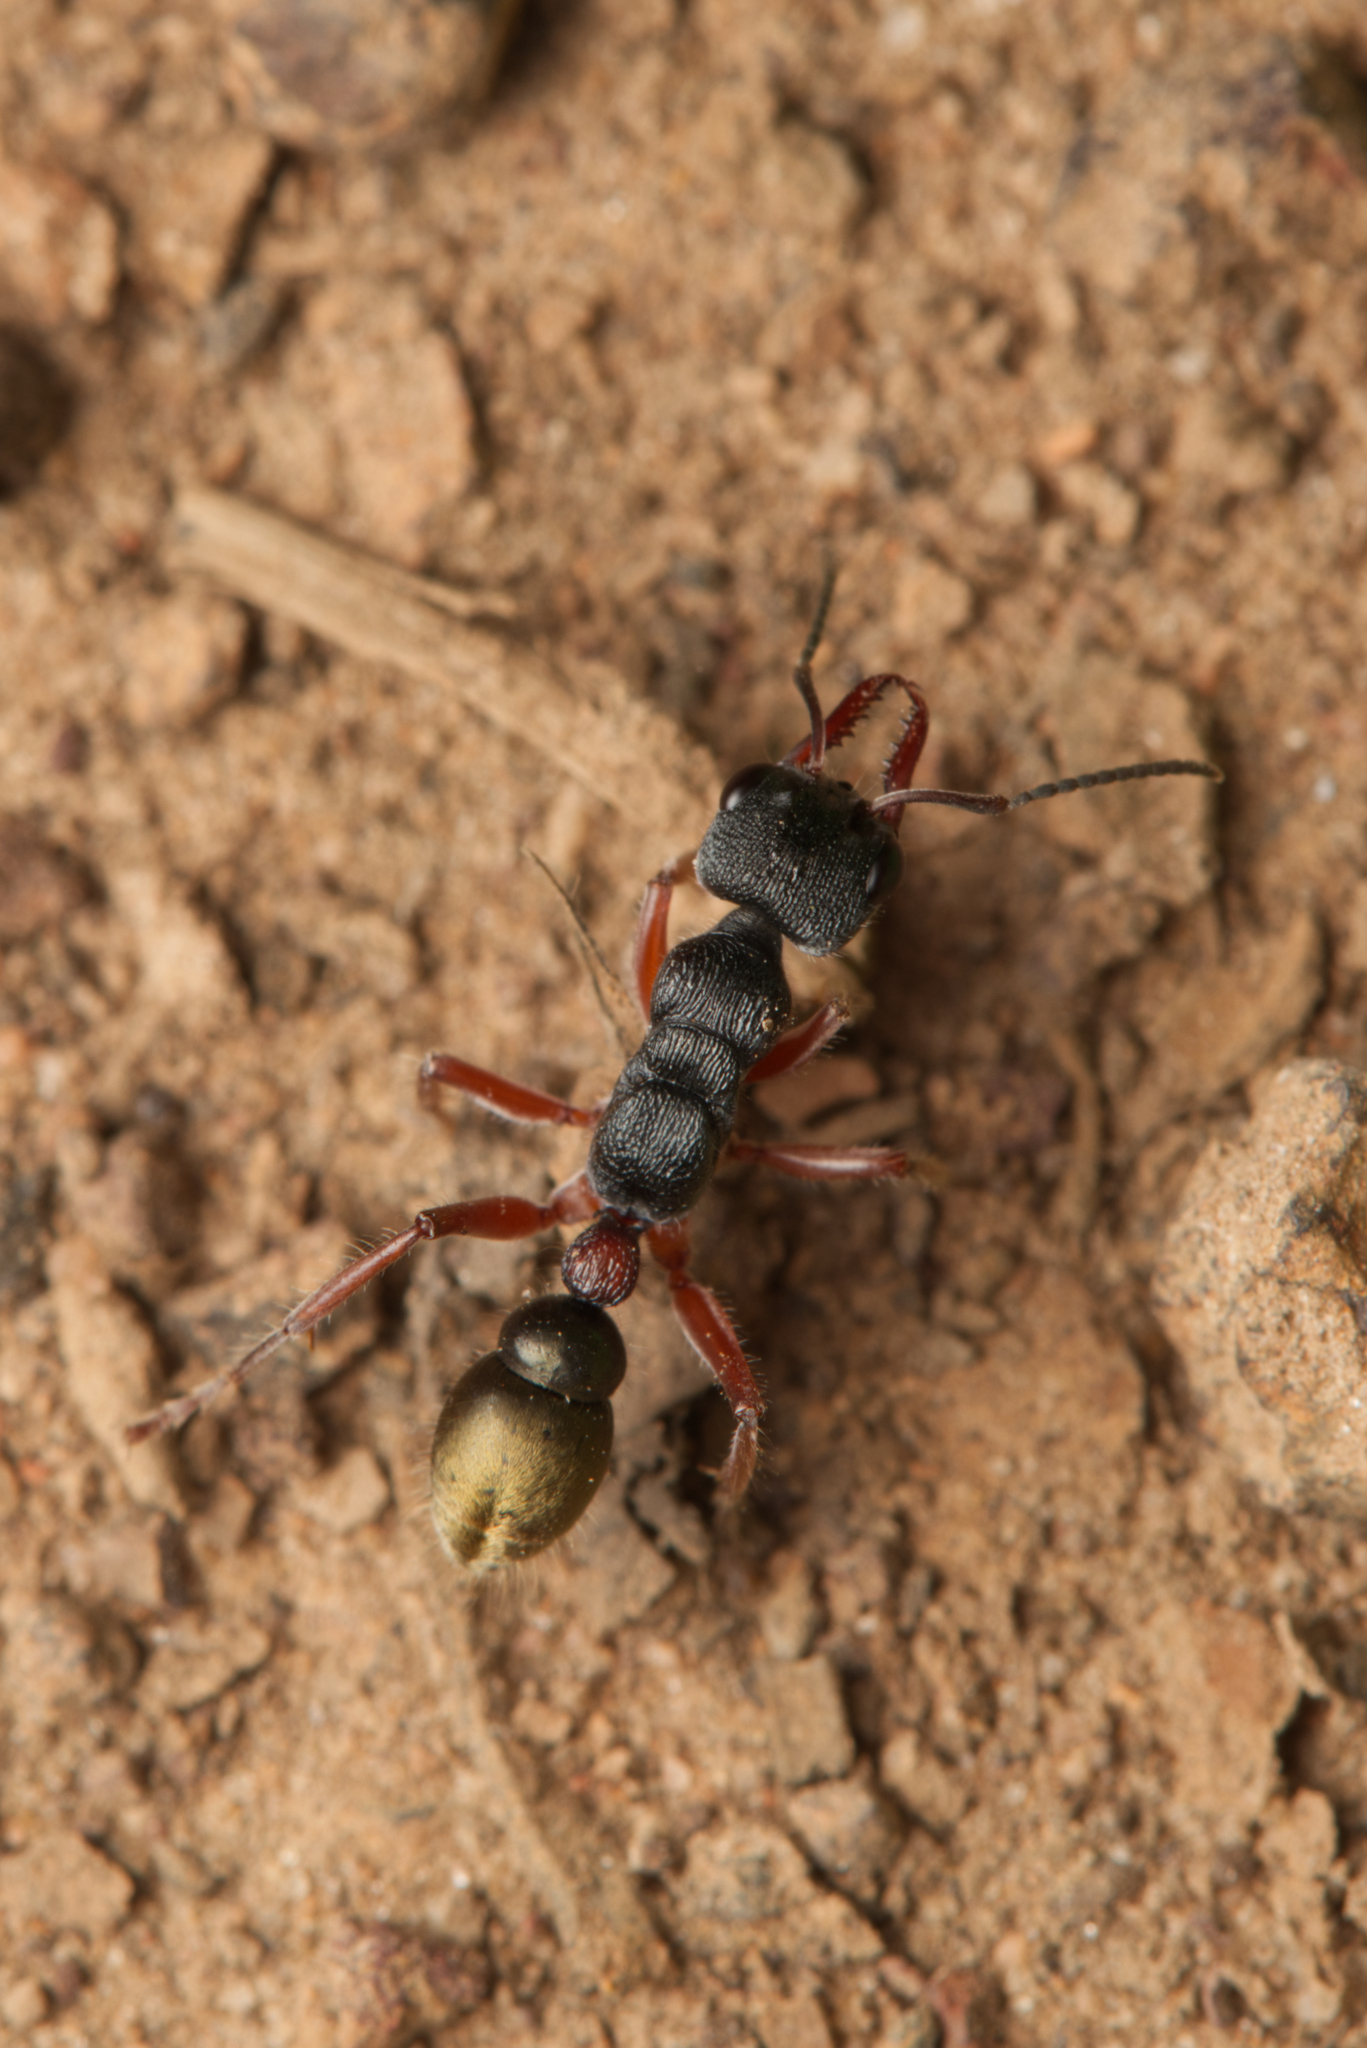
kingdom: Animalia
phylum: Arthropoda
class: Insecta
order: Hymenoptera
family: Formicidae
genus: Myrmecia
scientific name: Myrmecia chrysogaster
